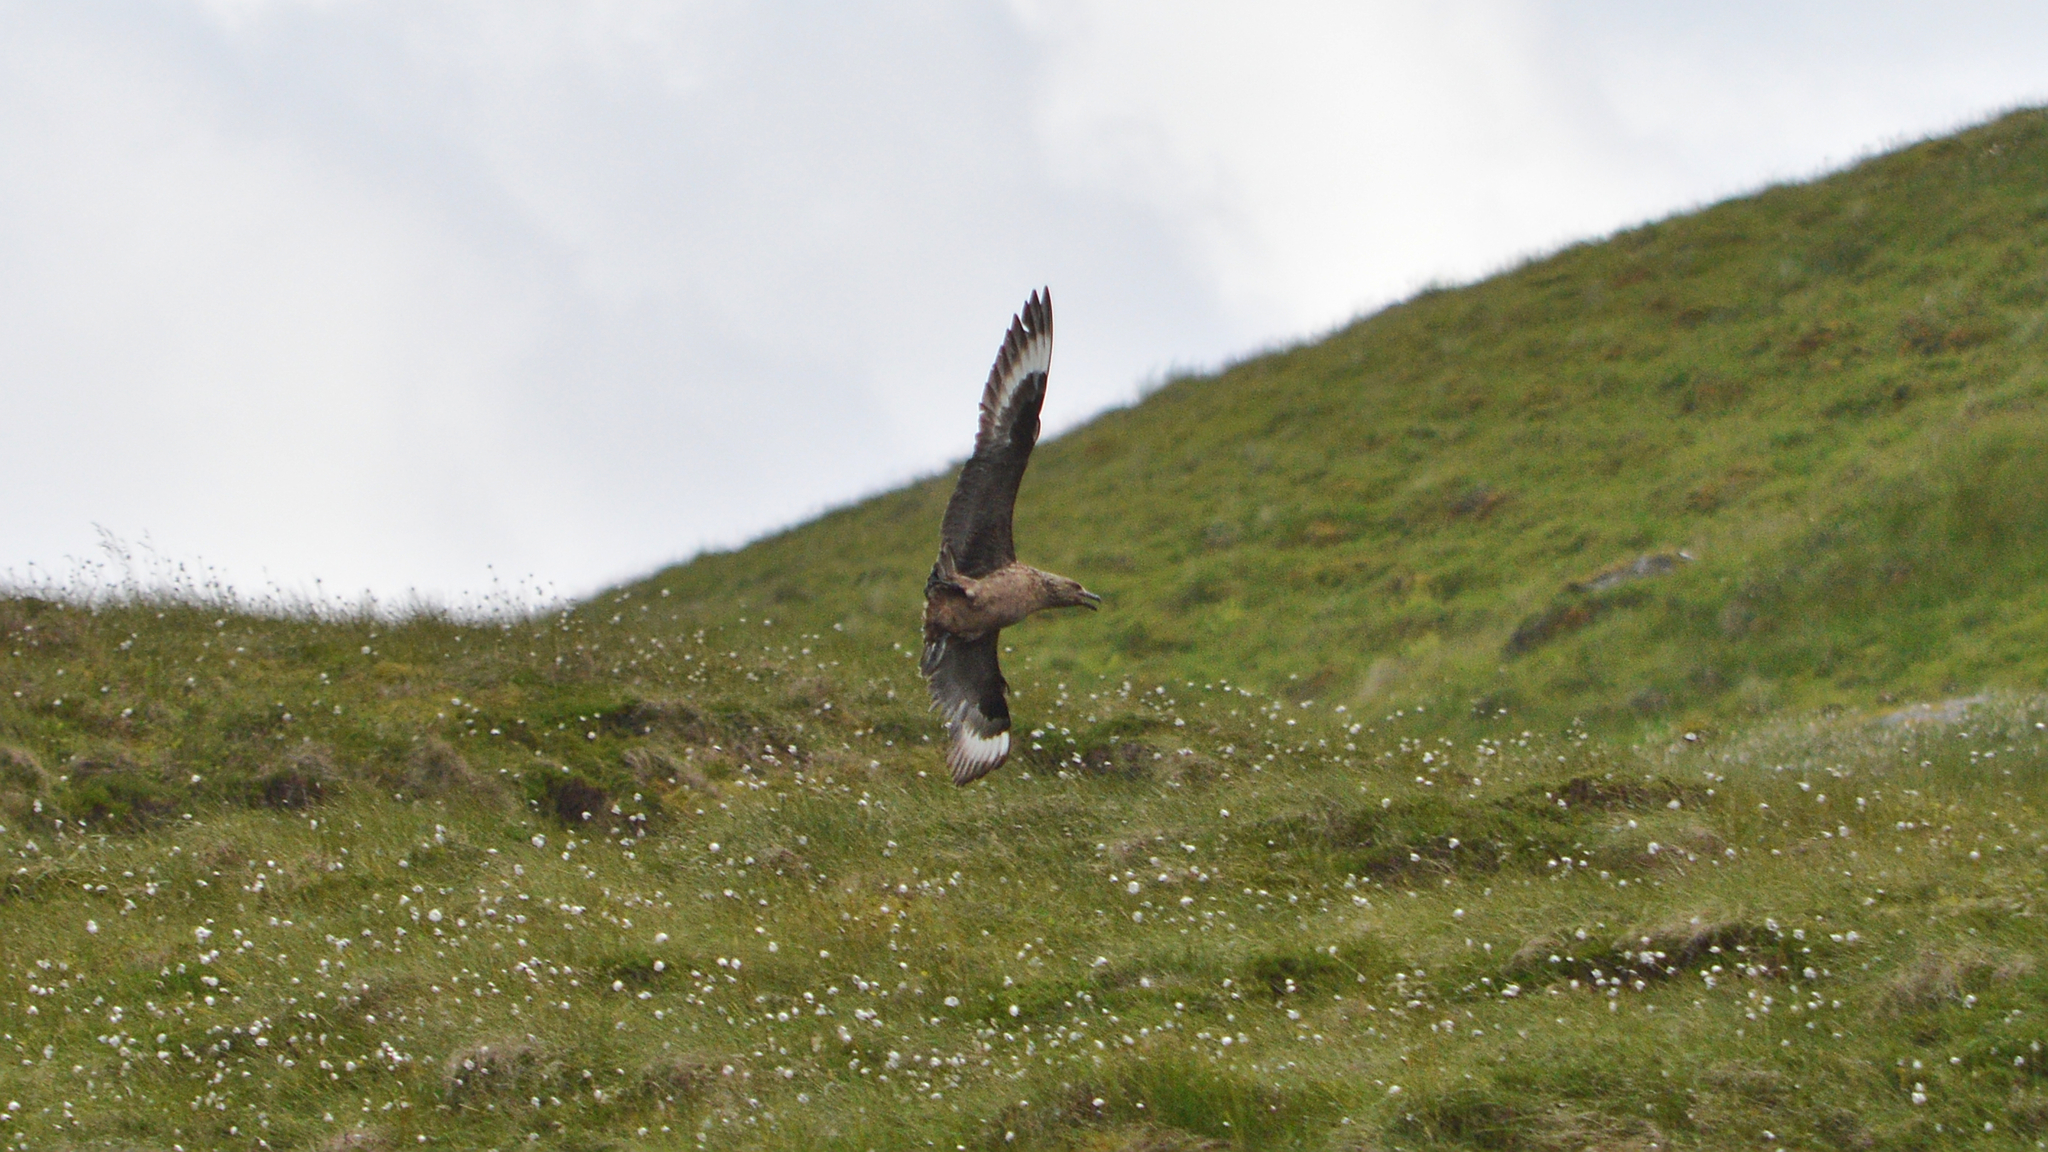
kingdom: Animalia
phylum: Chordata
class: Aves
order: Charadriiformes
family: Stercorariidae
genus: Stercorarius
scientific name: Stercorarius skua
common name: Great skua
